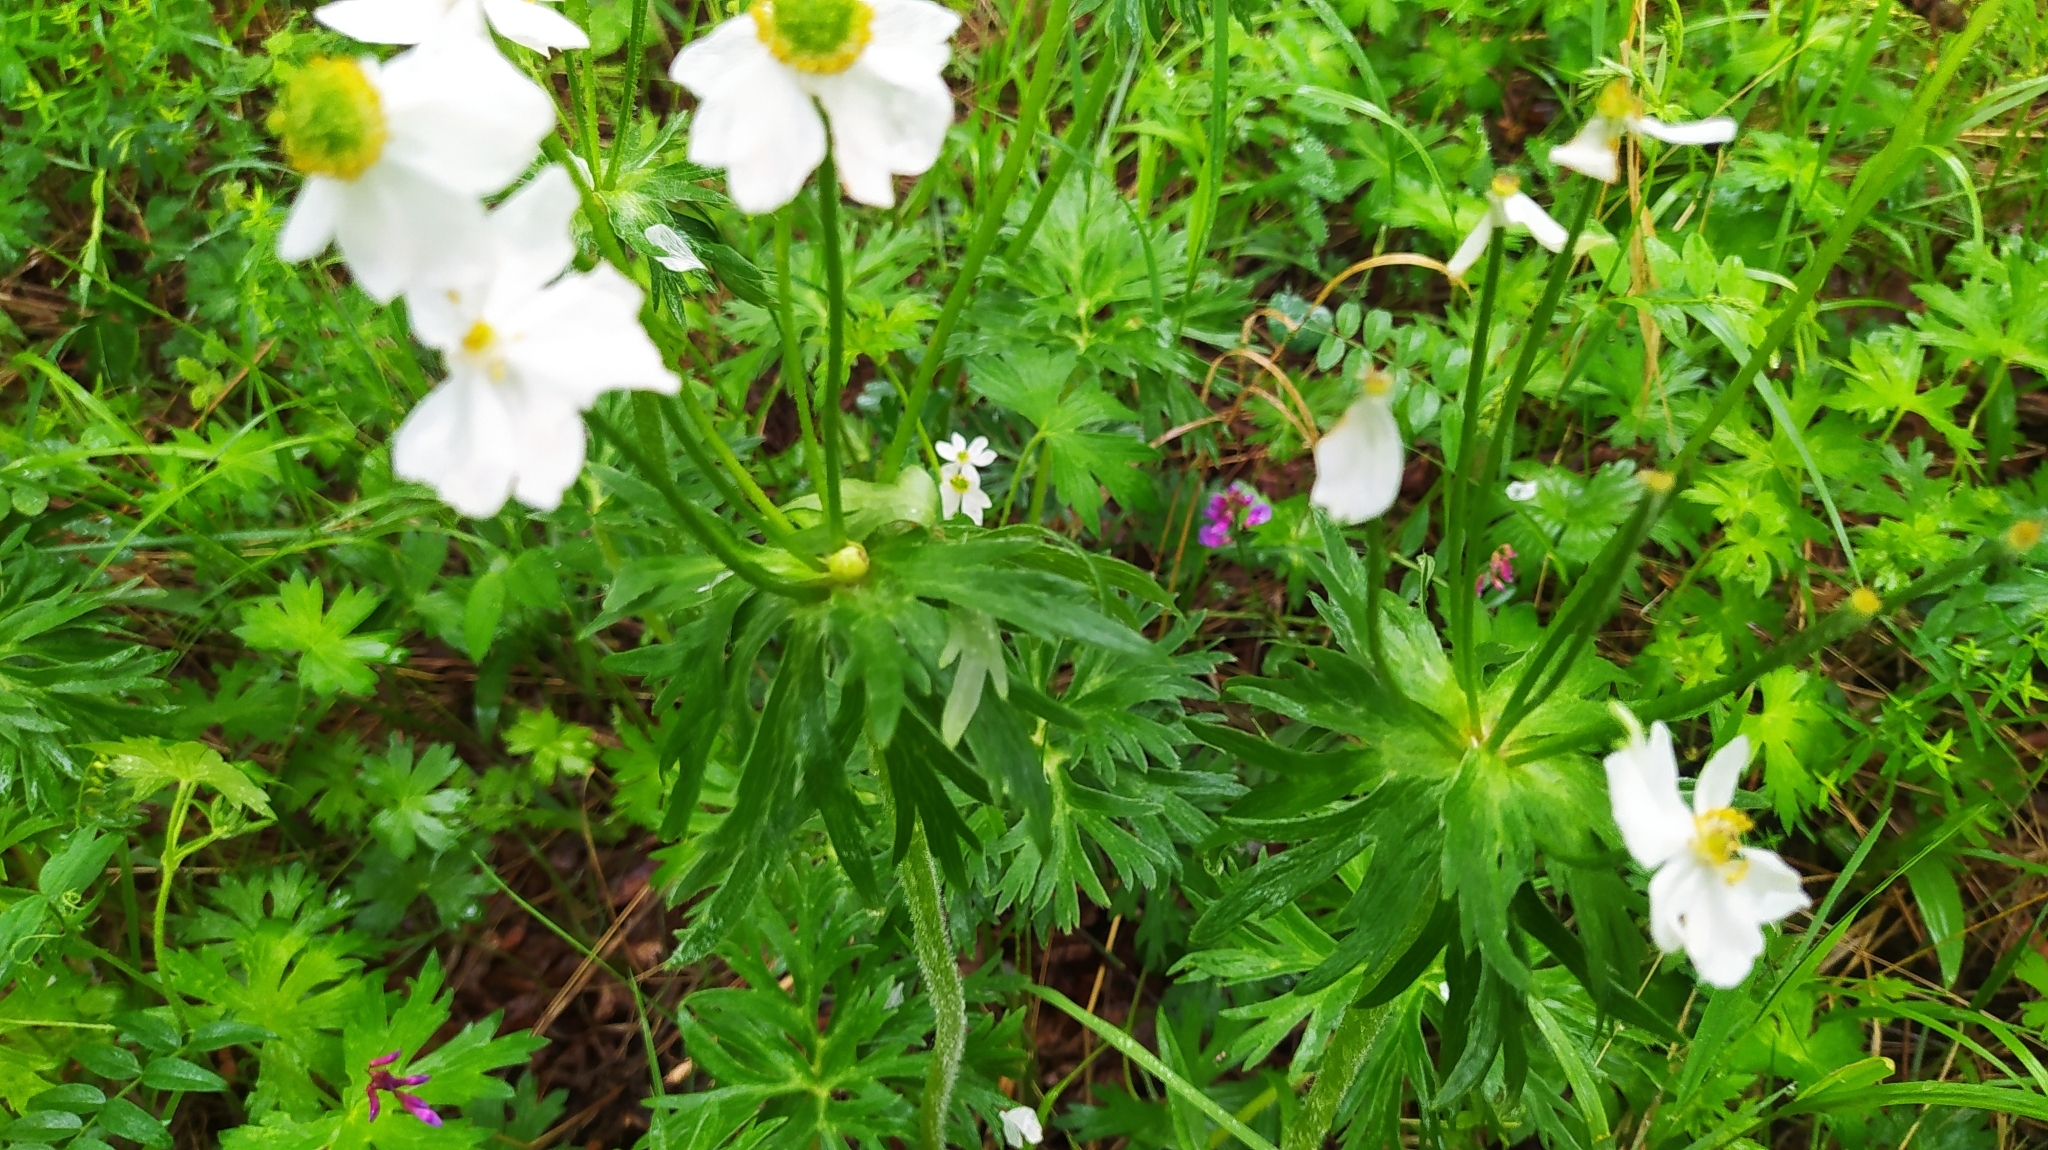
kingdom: Plantae
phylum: Tracheophyta
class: Magnoliopsida
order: Ranunculales
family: Ranunculaceae
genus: Anemonastrum
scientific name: Anemonastrum narcissiflorum
